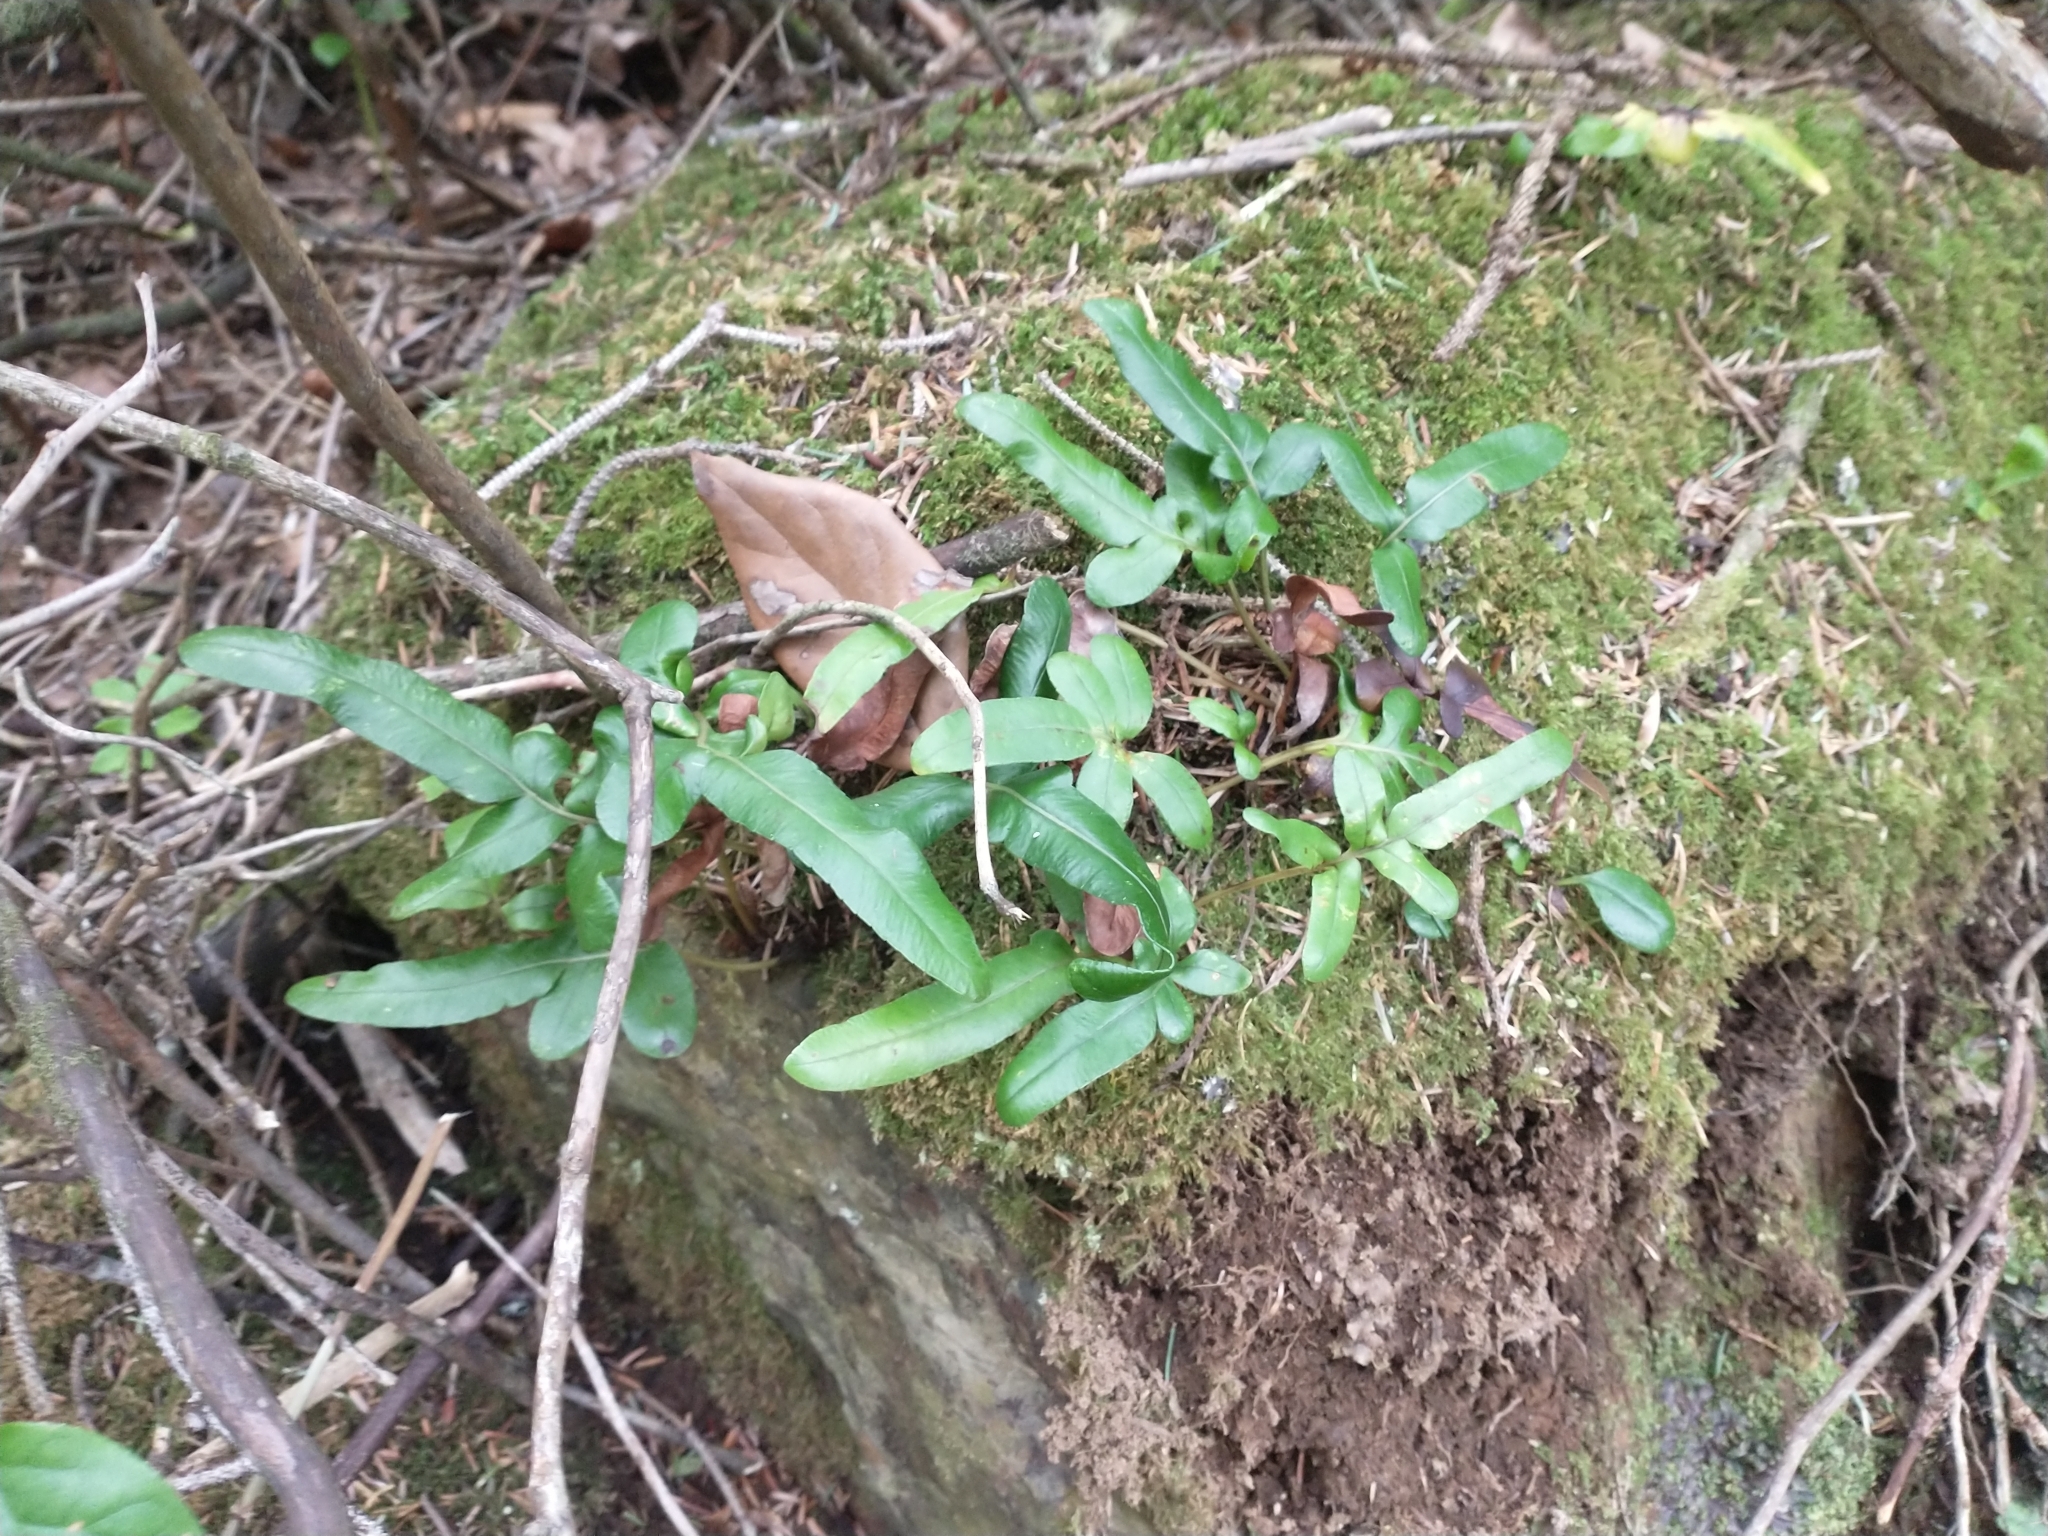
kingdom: Plantae
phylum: Tracheophyta
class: Polypodiopsida
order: Polypodiales
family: Polypodiaceae
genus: Polypodium
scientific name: Polypodium scouleri
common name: Scouler's polypody
